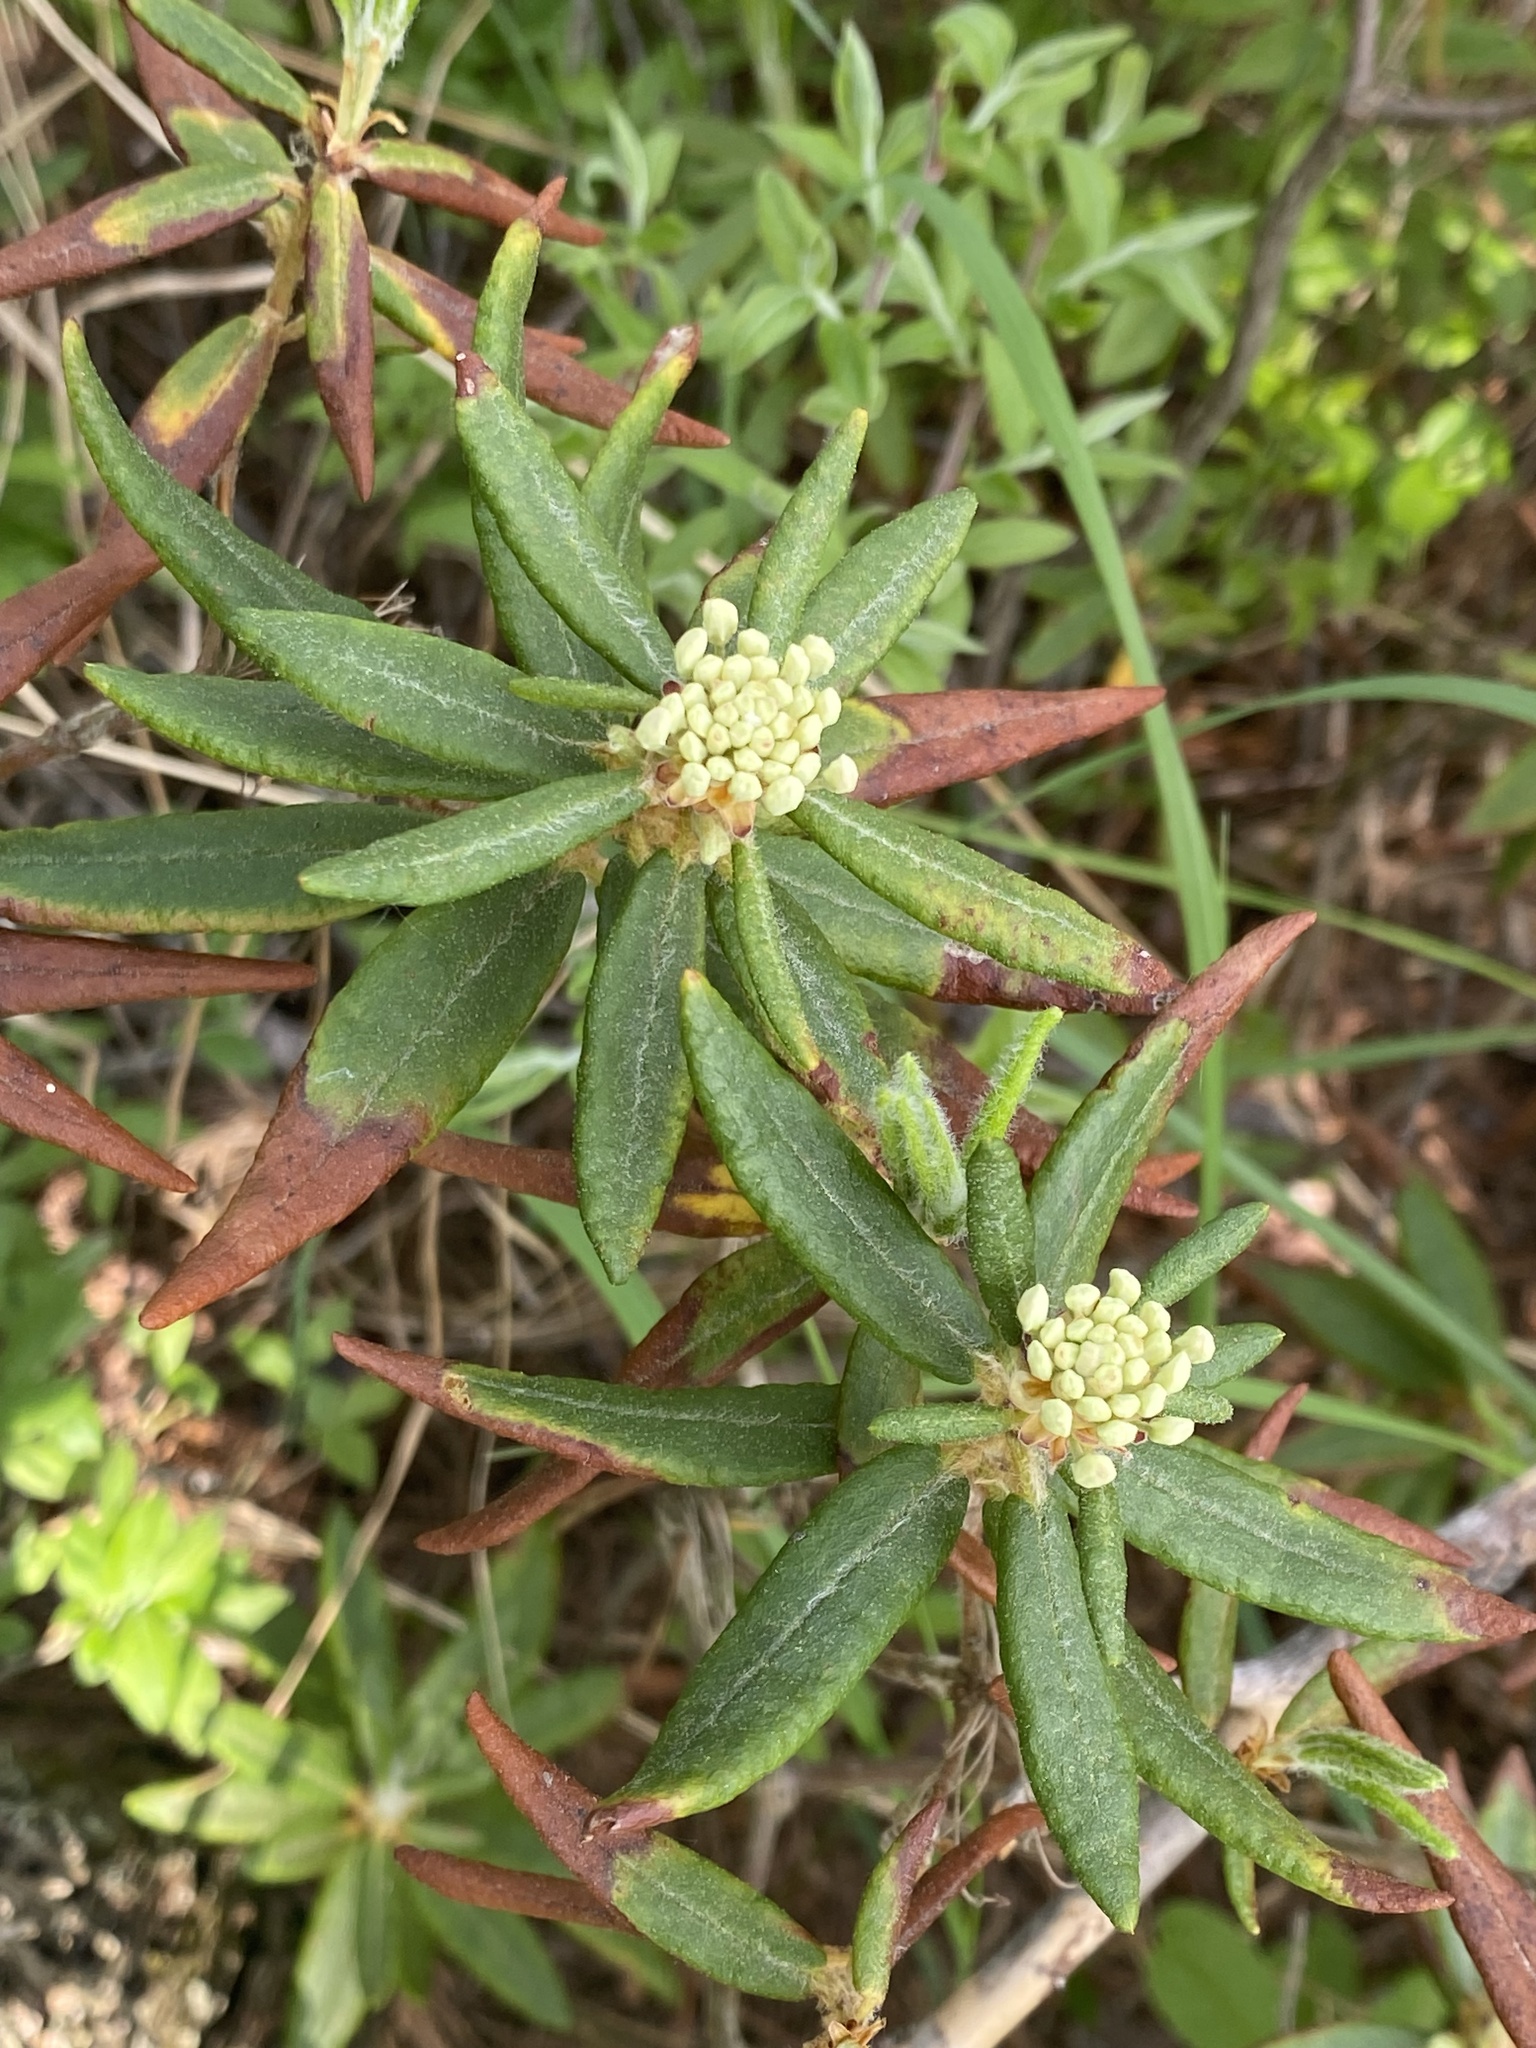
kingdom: Plantae
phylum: Tracheophyta
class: Magnoliopsida
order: Ericales
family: Ericaceae
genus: Rhododendron
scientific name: Rhododendron groenlandicum
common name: Bog labrador tea
